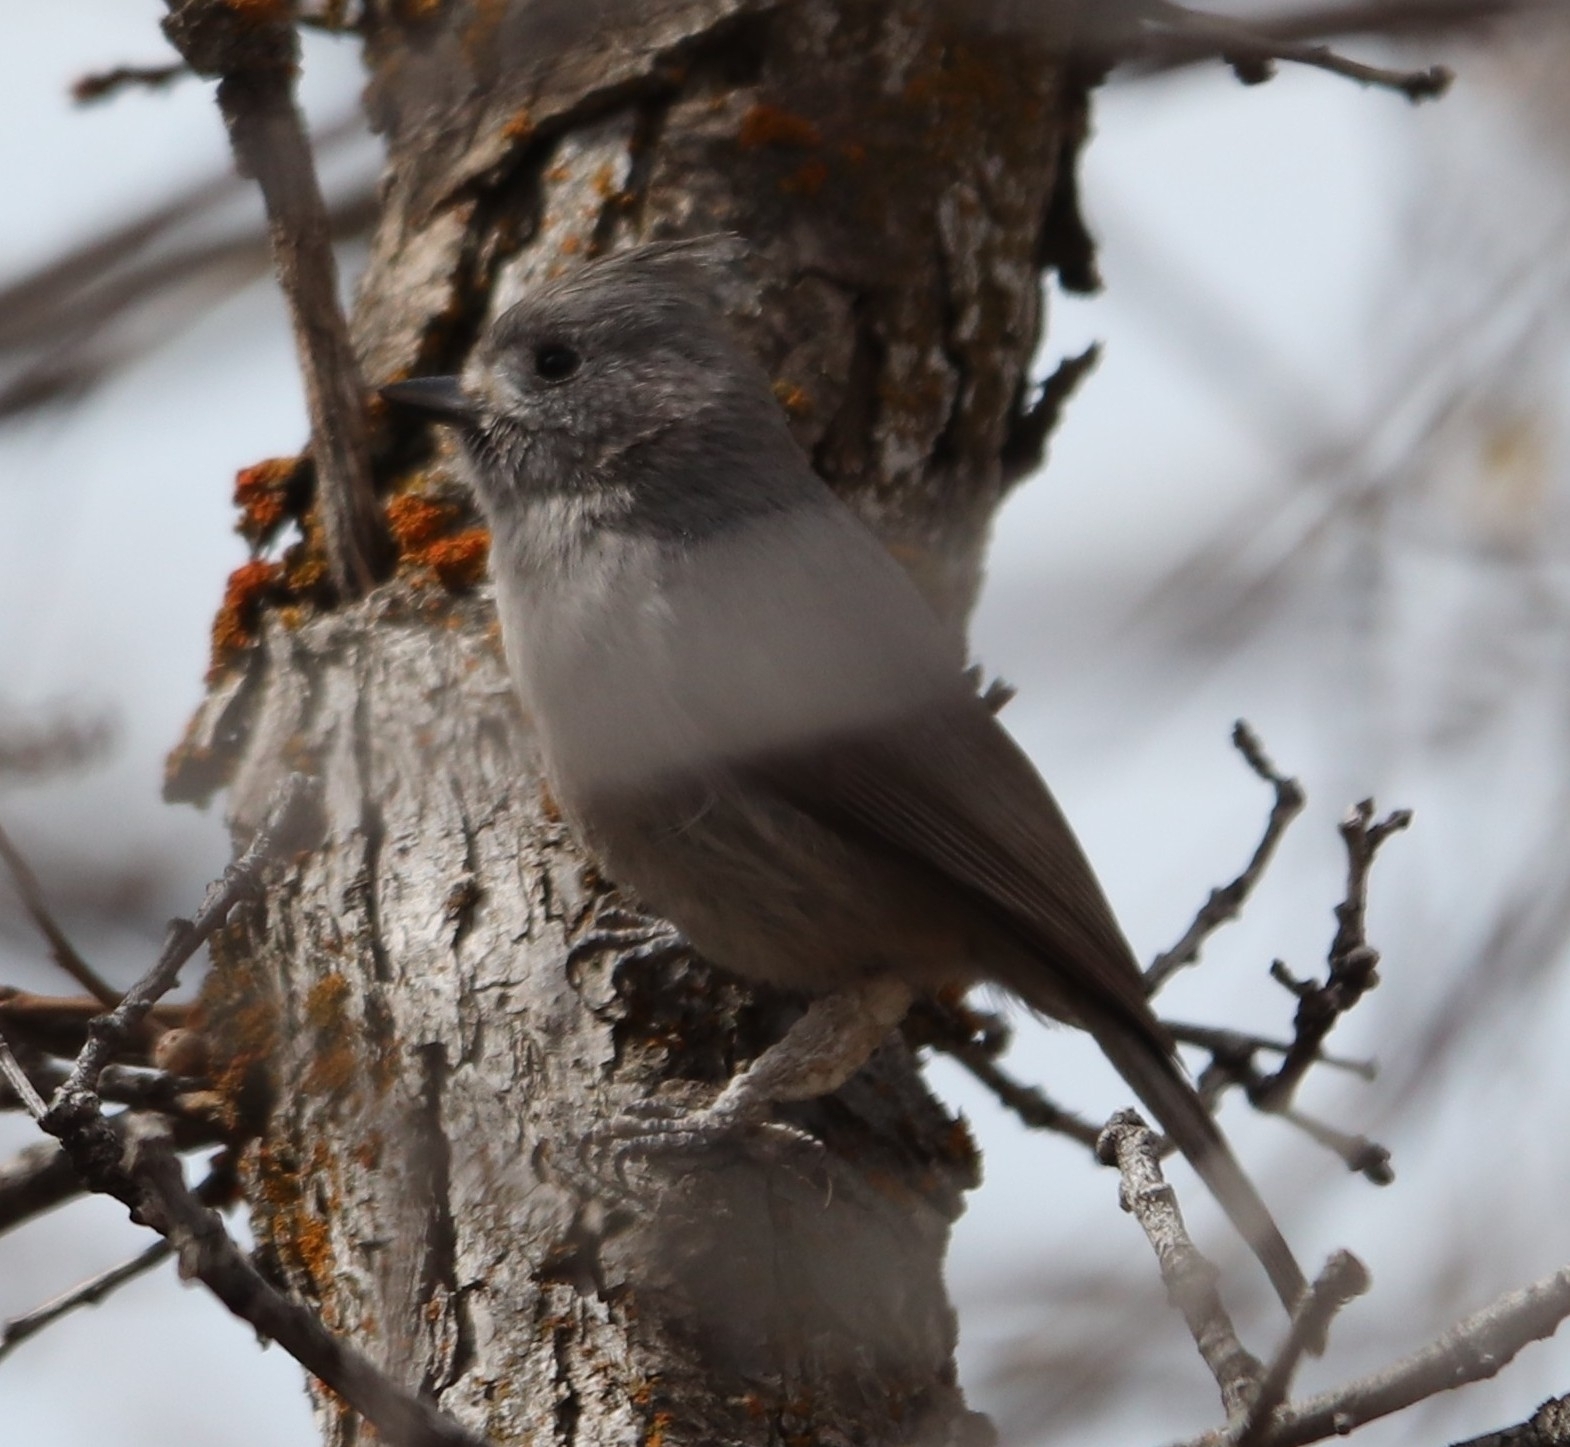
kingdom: Animalia
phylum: Chordata
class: Aves
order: Passeriformes
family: Paridae
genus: Baeolophus
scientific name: Baeolophus ridgwayi
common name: Juniper titmouse
